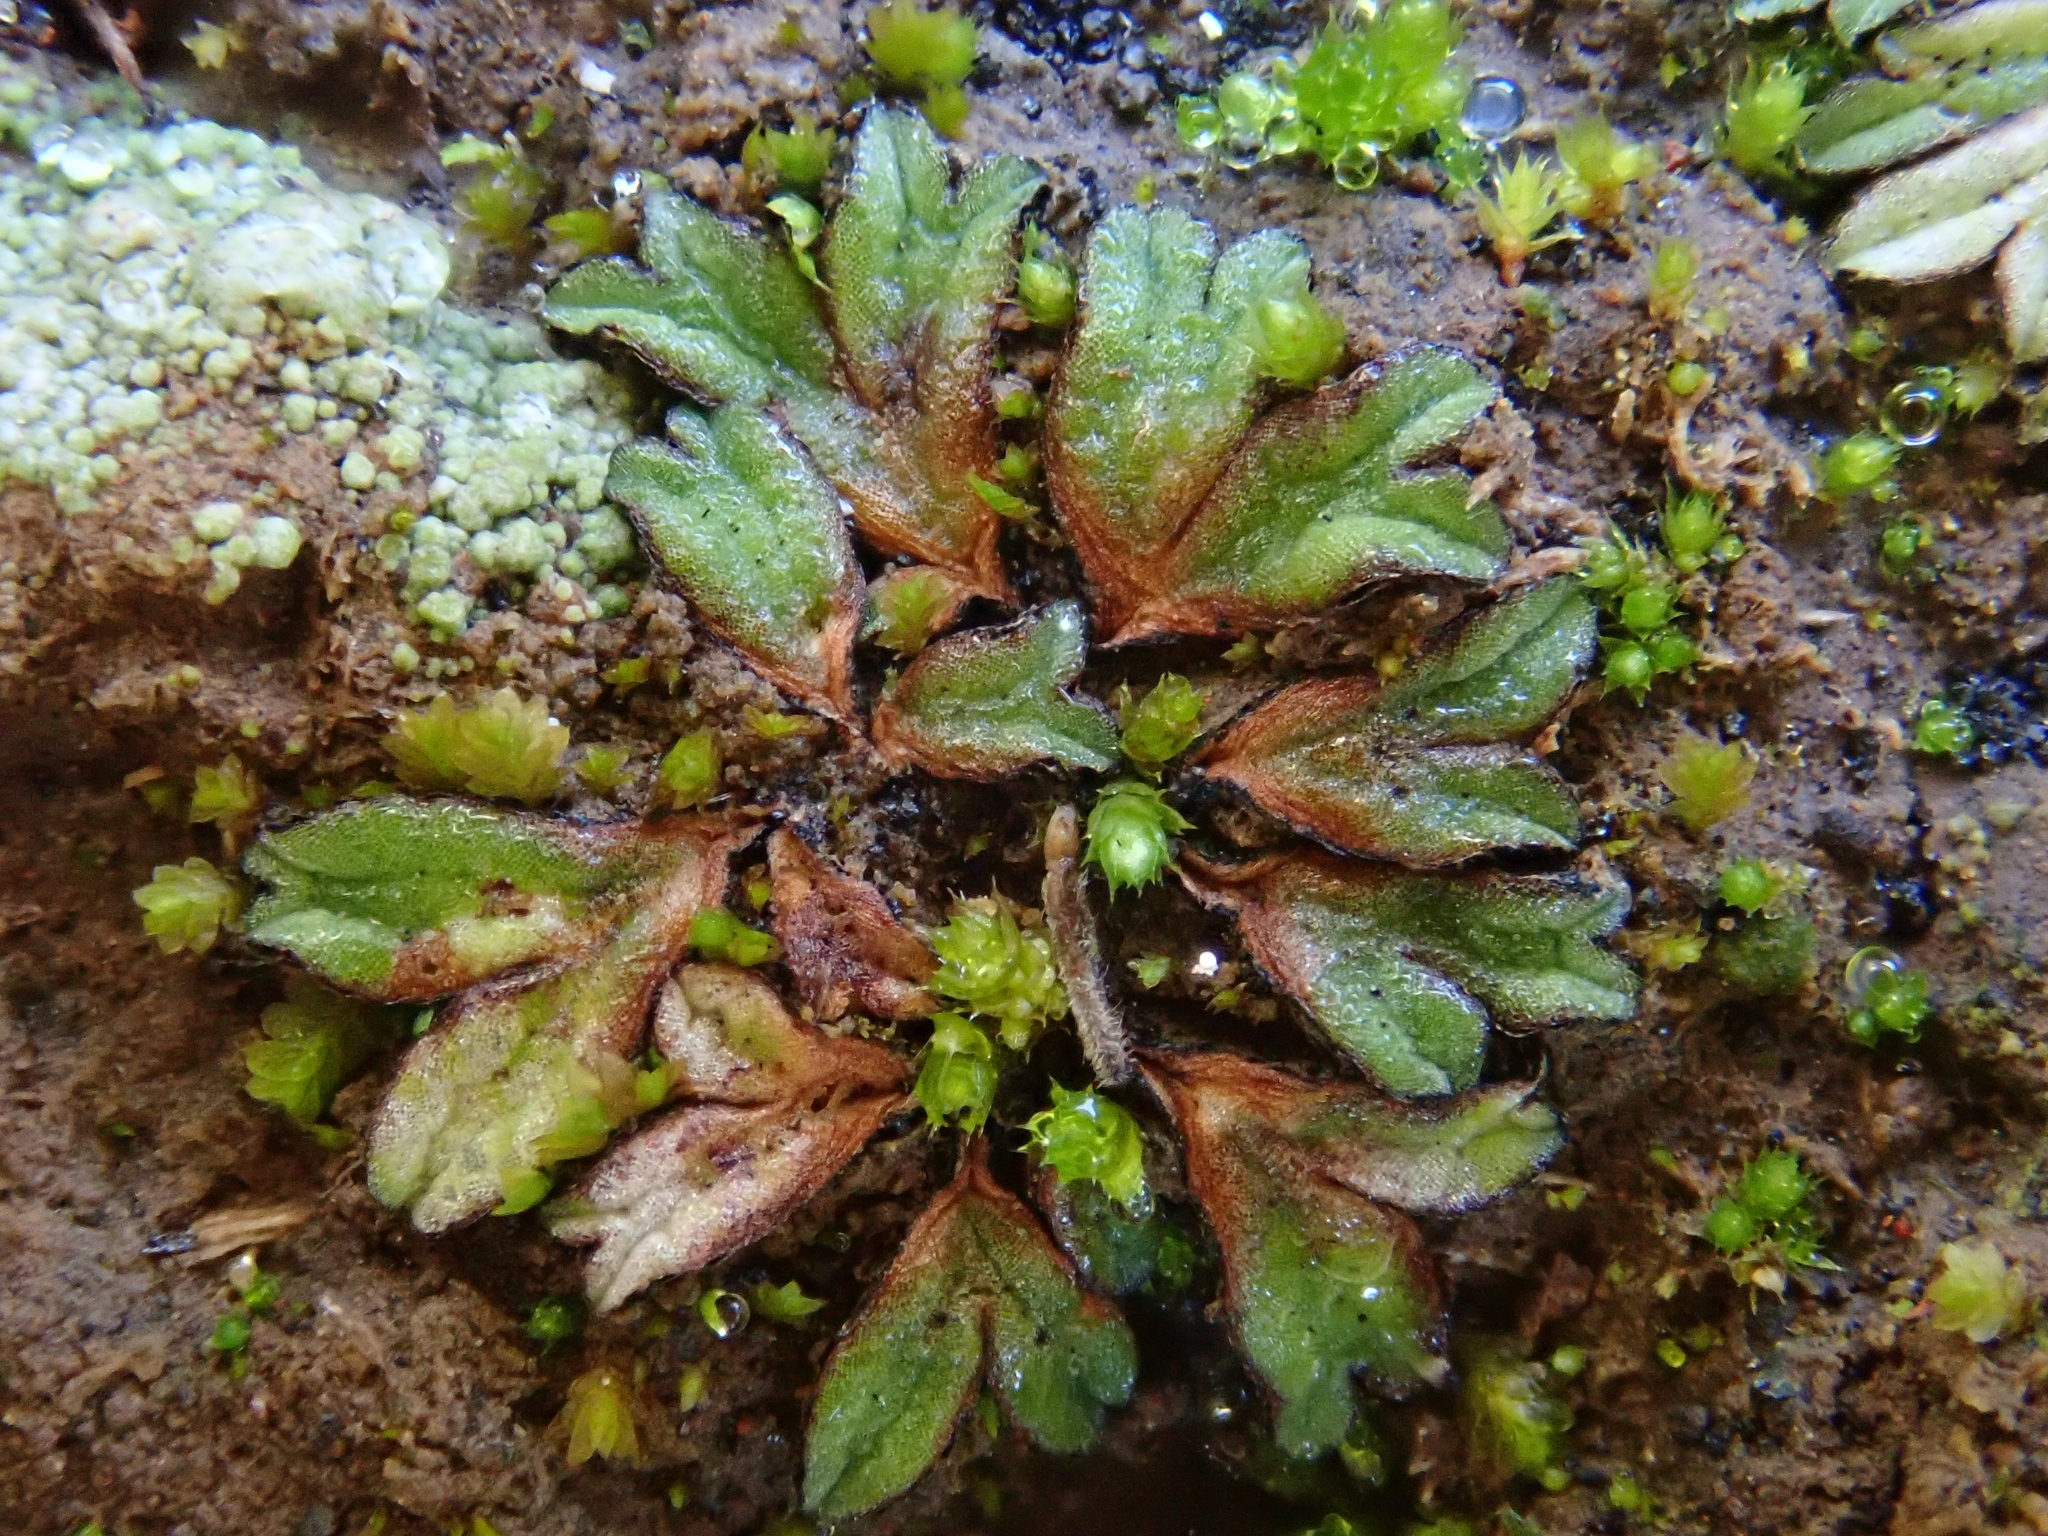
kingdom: Plantae
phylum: Marchantiophyta
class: Marchantiopsida
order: Marchantiales
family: Ricciaceae
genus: Riccia
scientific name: Riccia nigrella
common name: Black crystalwort
